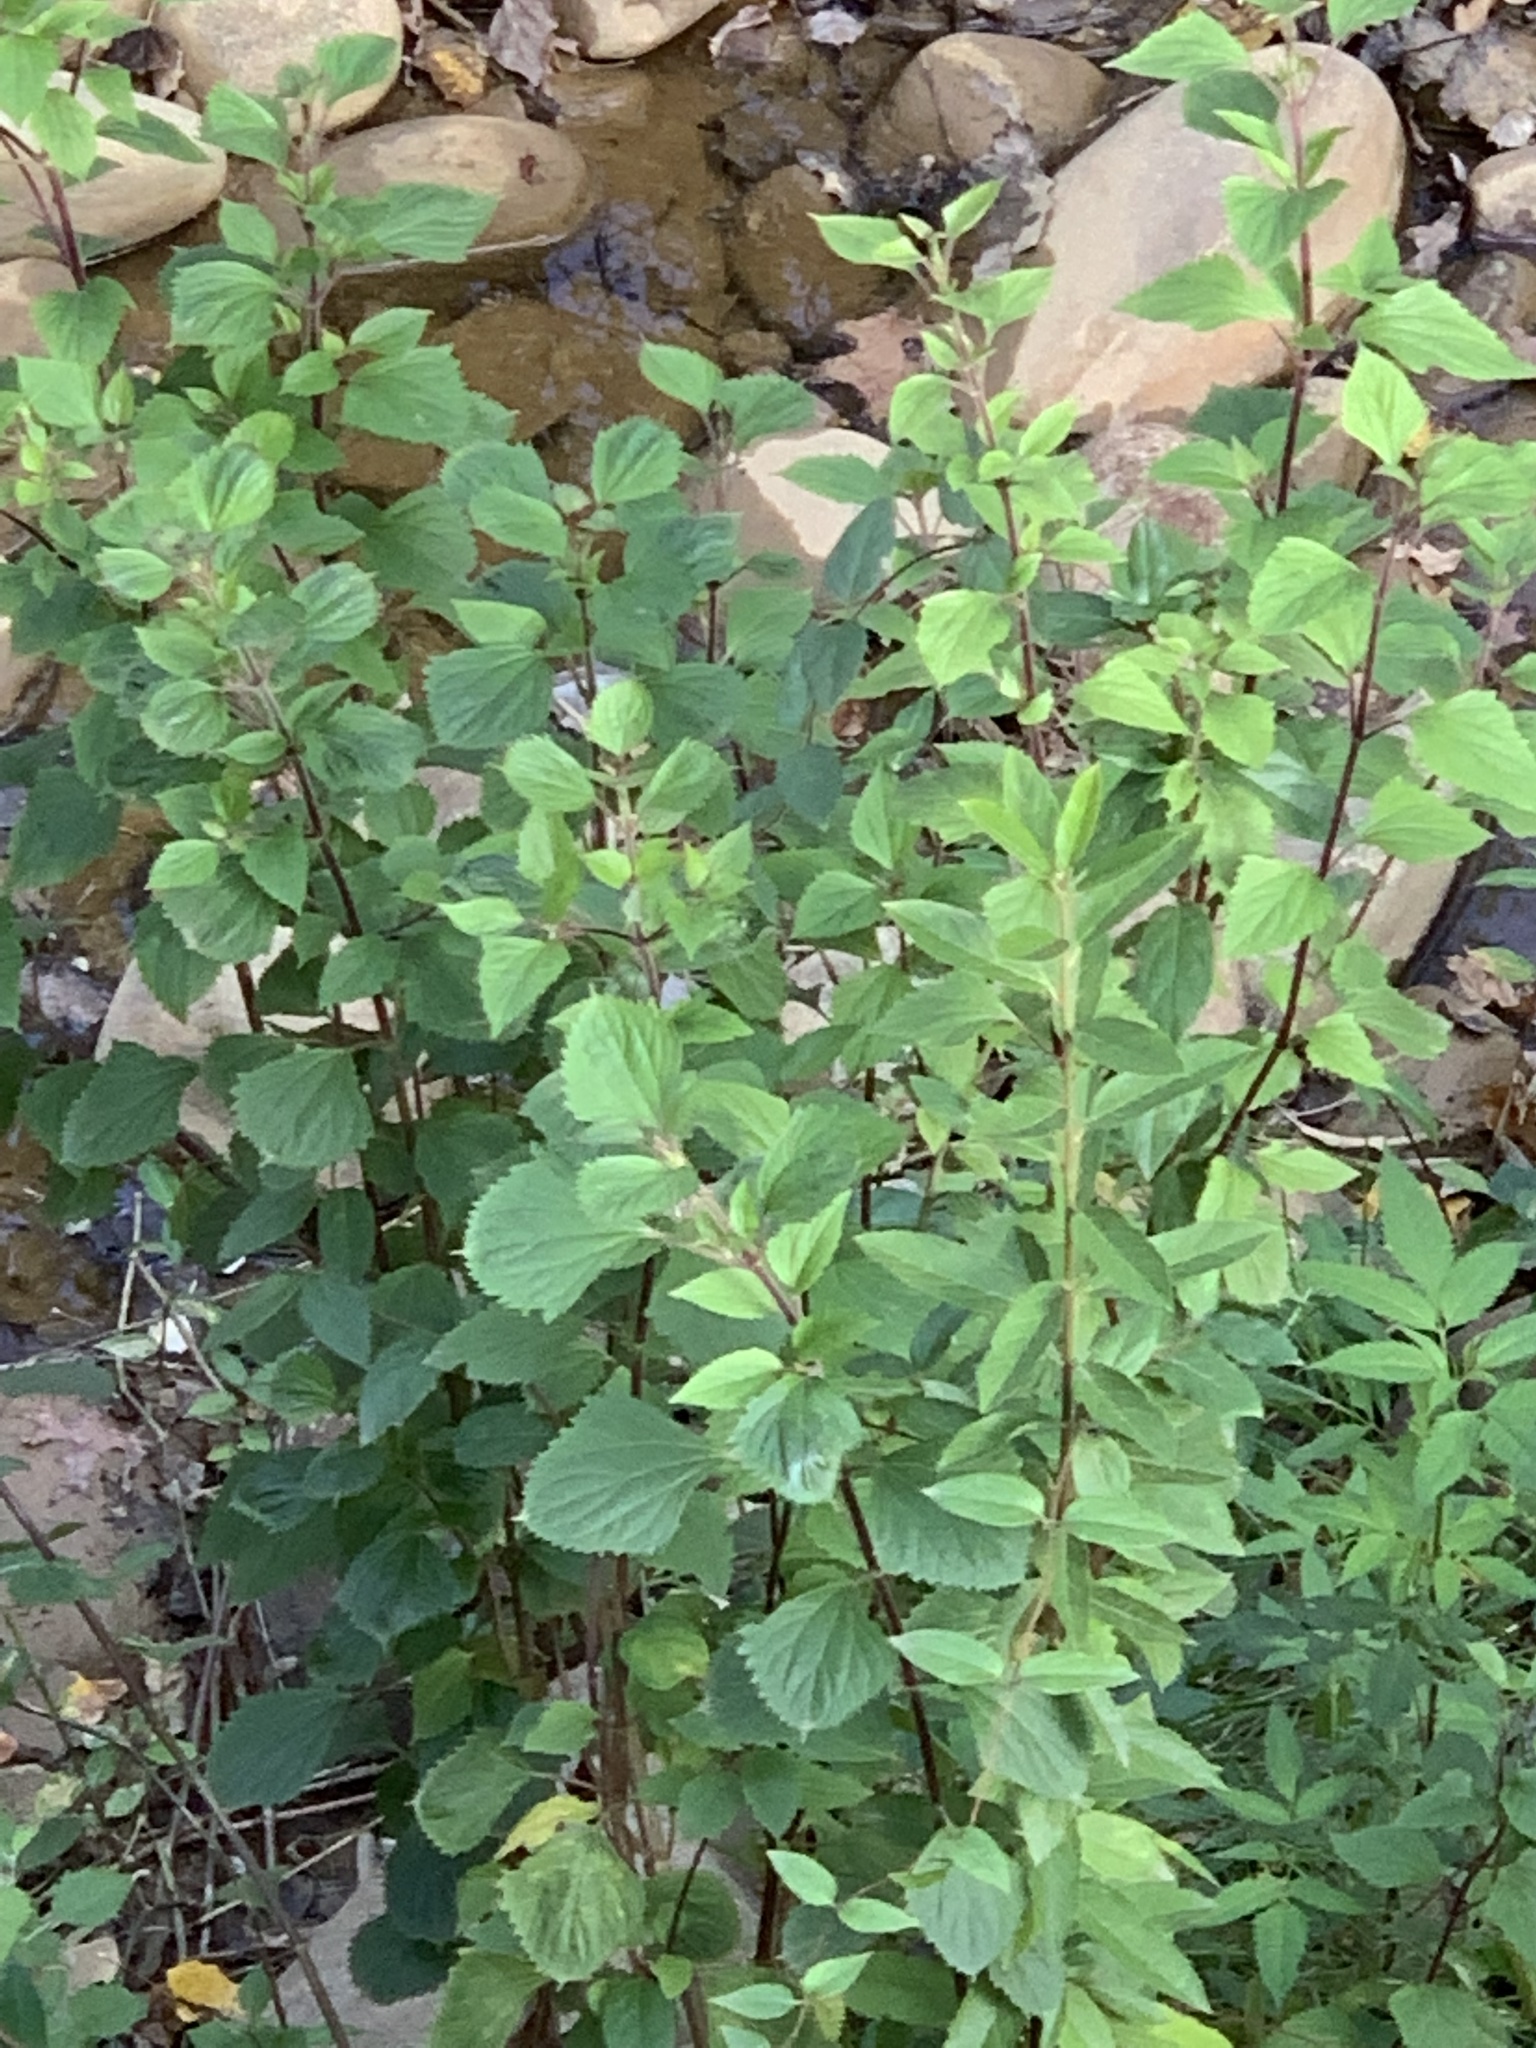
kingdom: Plantae
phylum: Tracheophyta
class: Magnoliopsida
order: Asterales
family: Asteraceae
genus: Ageratina
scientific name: Ageratina adenophora
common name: Sticky snakeroot
